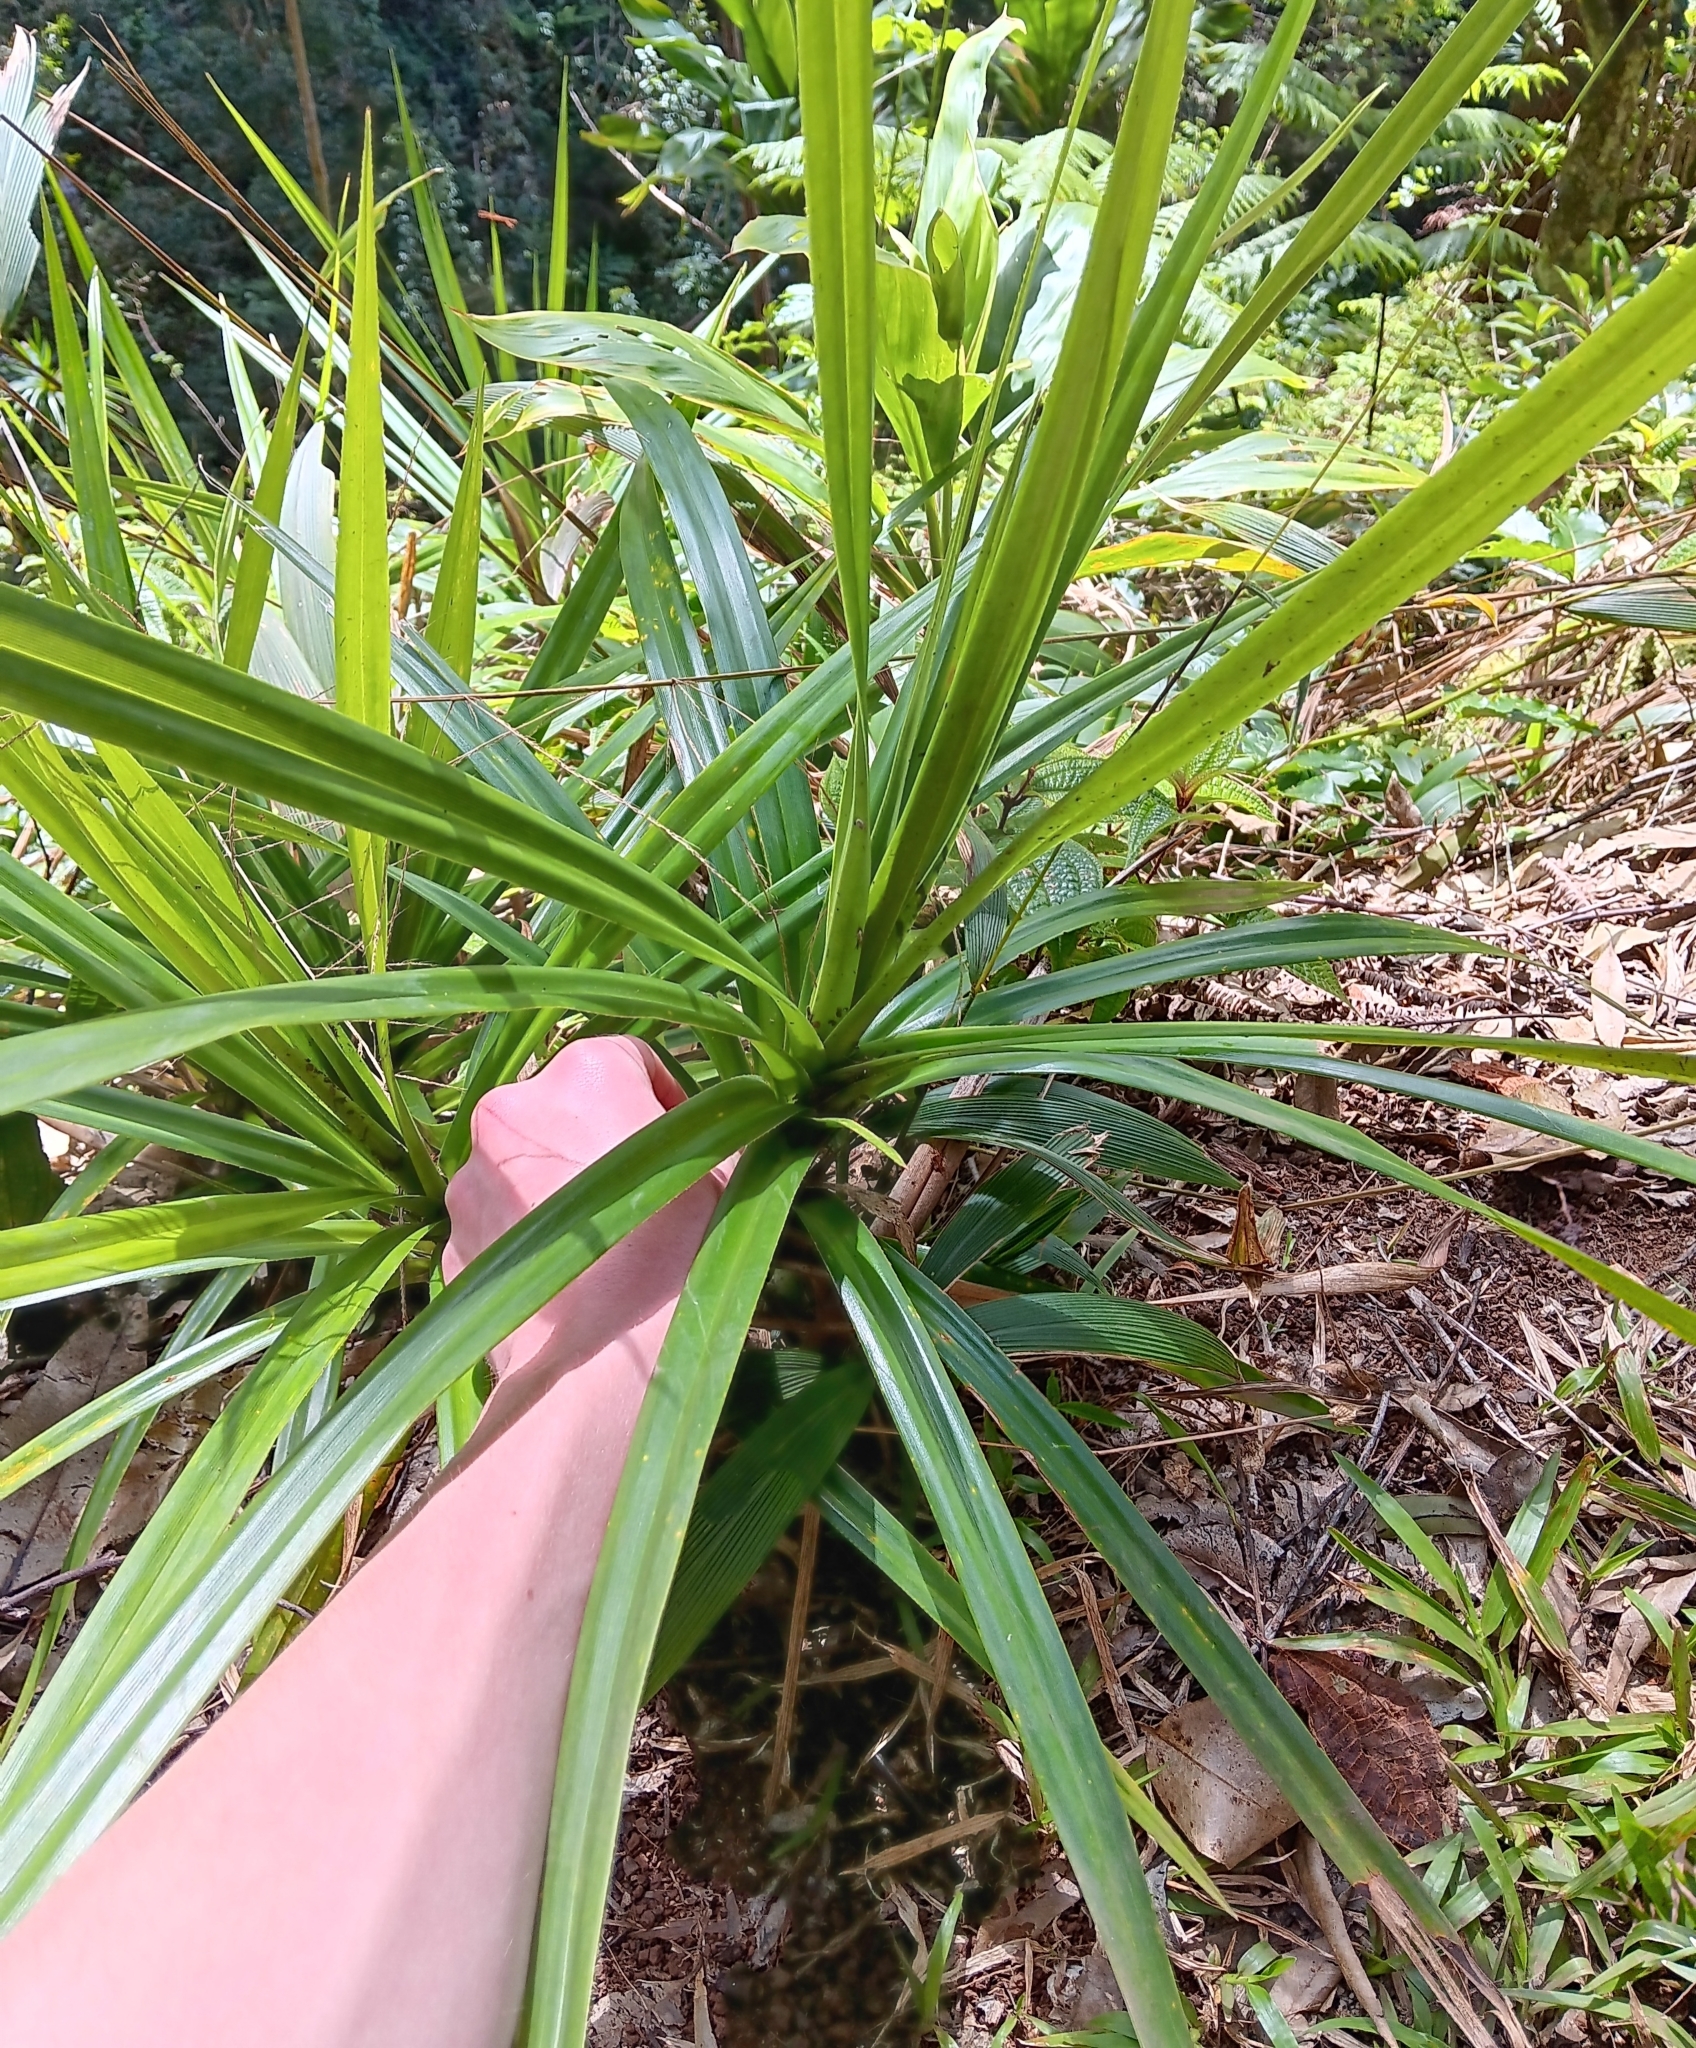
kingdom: Plantae
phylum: Tracheophyta
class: Liliopsida
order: Pandanales
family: Pandanaceae
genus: Freycinetia
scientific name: Freycinetia arborea
